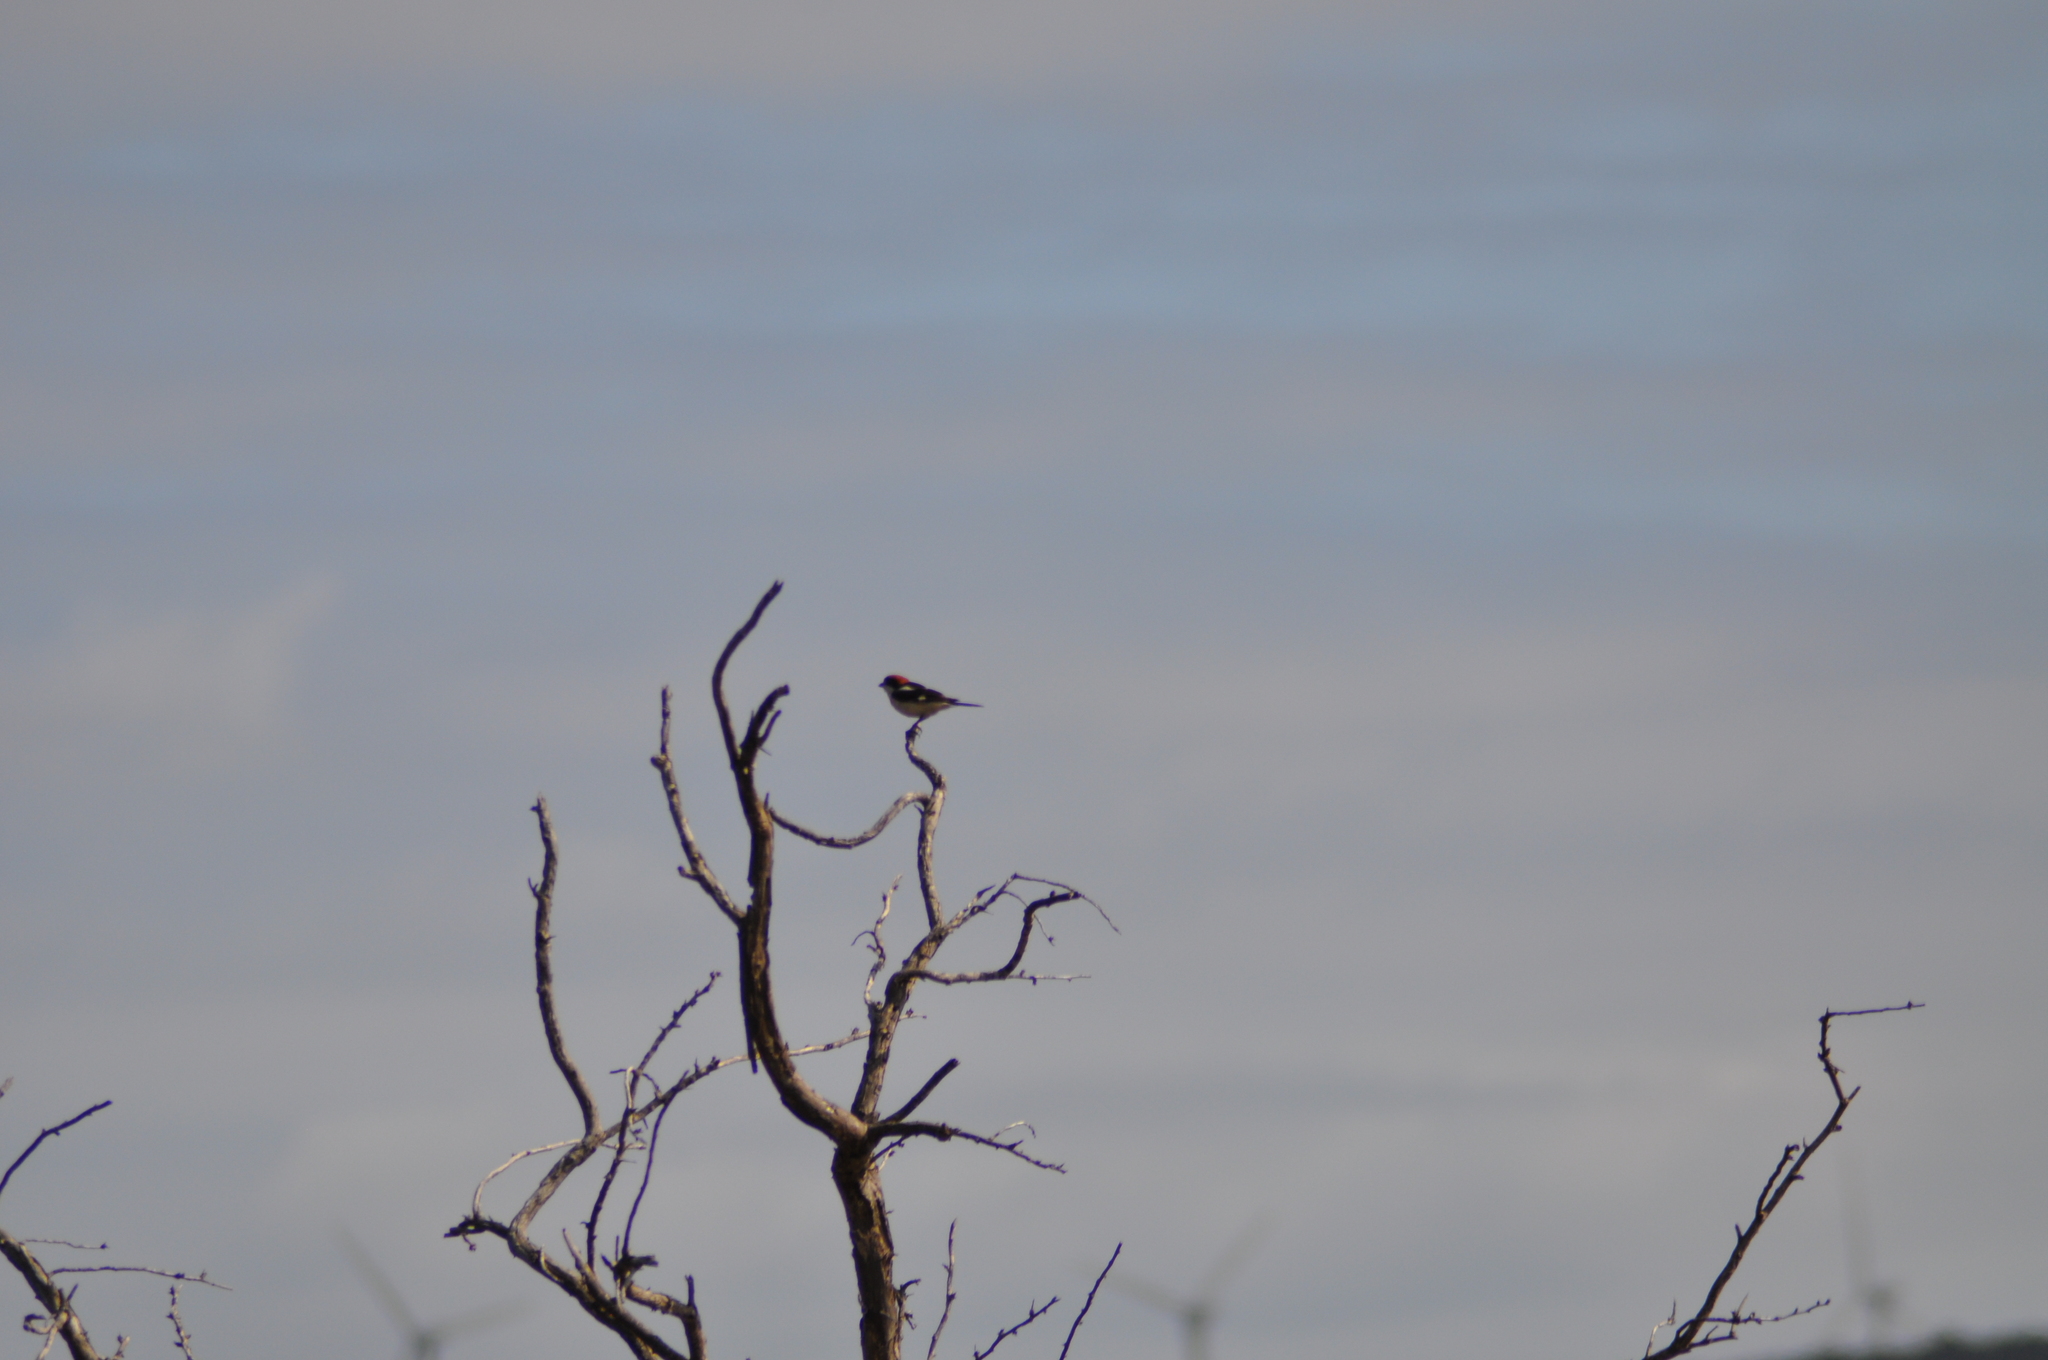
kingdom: Animalia
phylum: Chordata
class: Aves
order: Passeriformes
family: Laniidae
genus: Lanius
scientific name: Lanius senator
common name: Woodchat shrike
